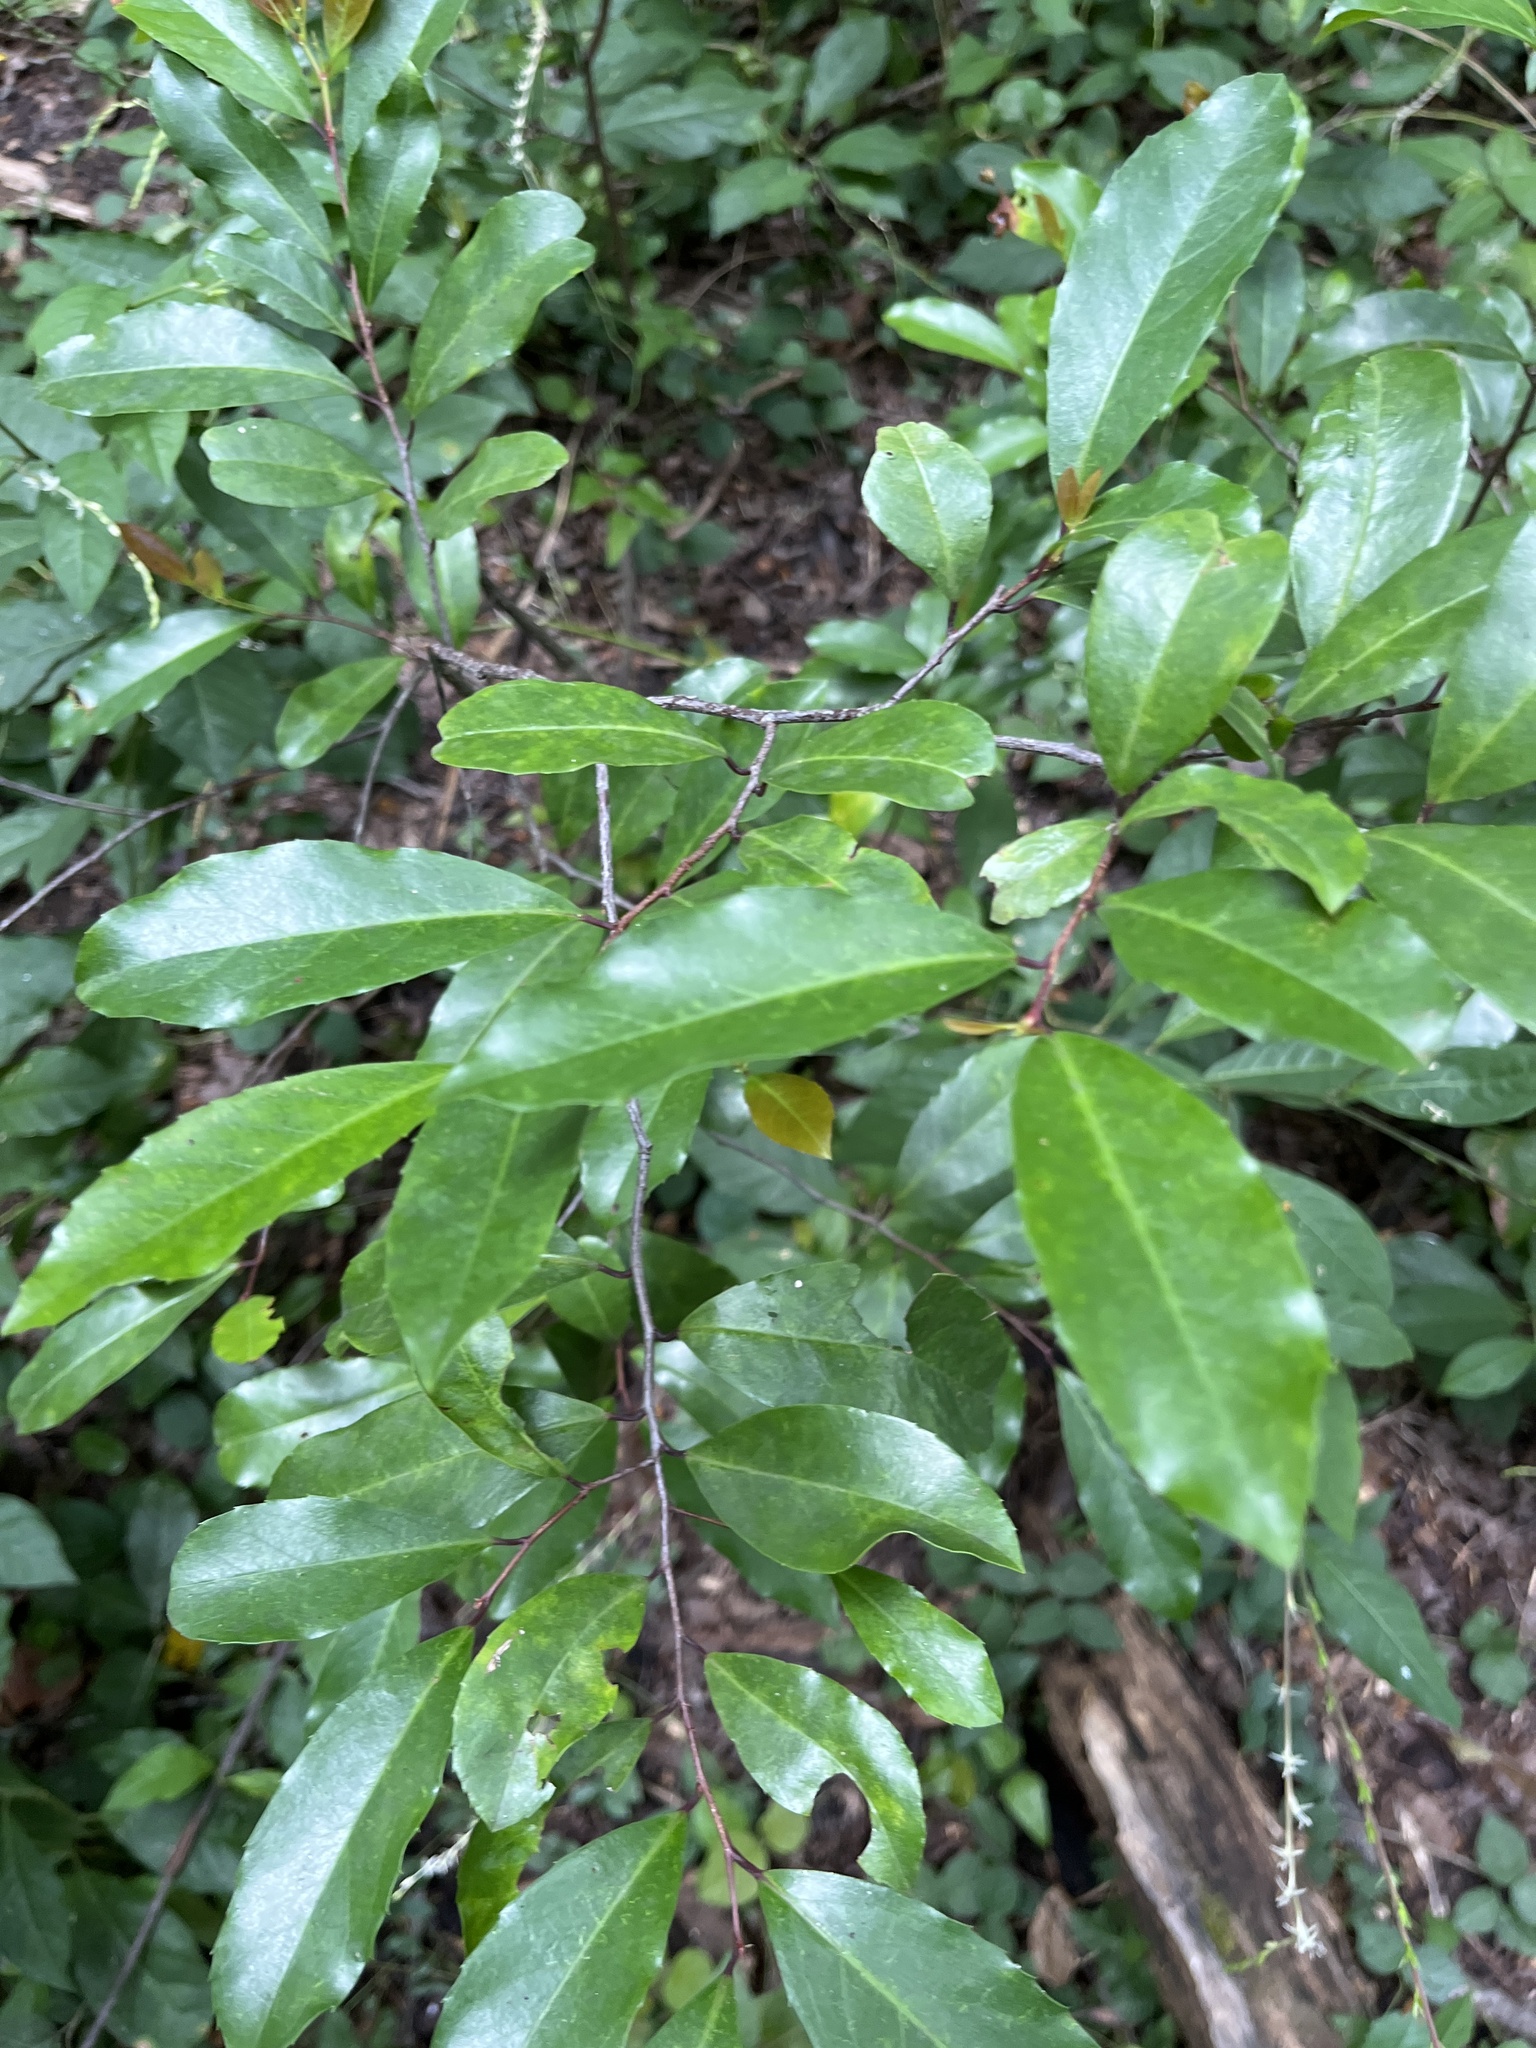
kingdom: Plantae
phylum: Tracheophyta
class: Magnoliopsida
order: Rosales
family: Rosaceae
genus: Prunus
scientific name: Prunus caroliniana
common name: Carolina laurel cherry
